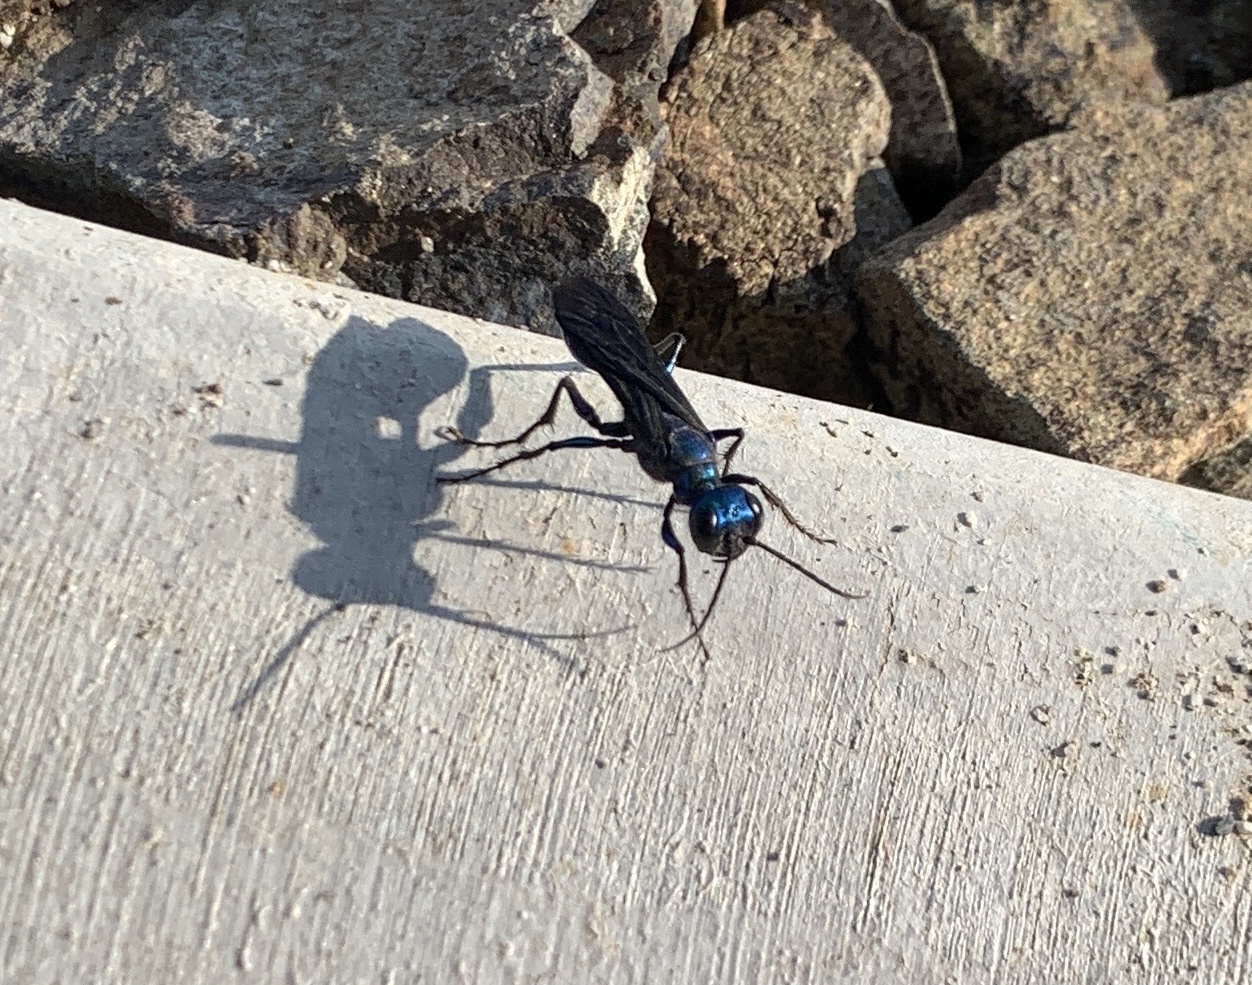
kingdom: Animalia
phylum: Arthropoda
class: Insecta
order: Hymenoptera
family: Sphecidae
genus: Chlorion
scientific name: Chlorion aerarium
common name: Steel-blue cricket hunter
